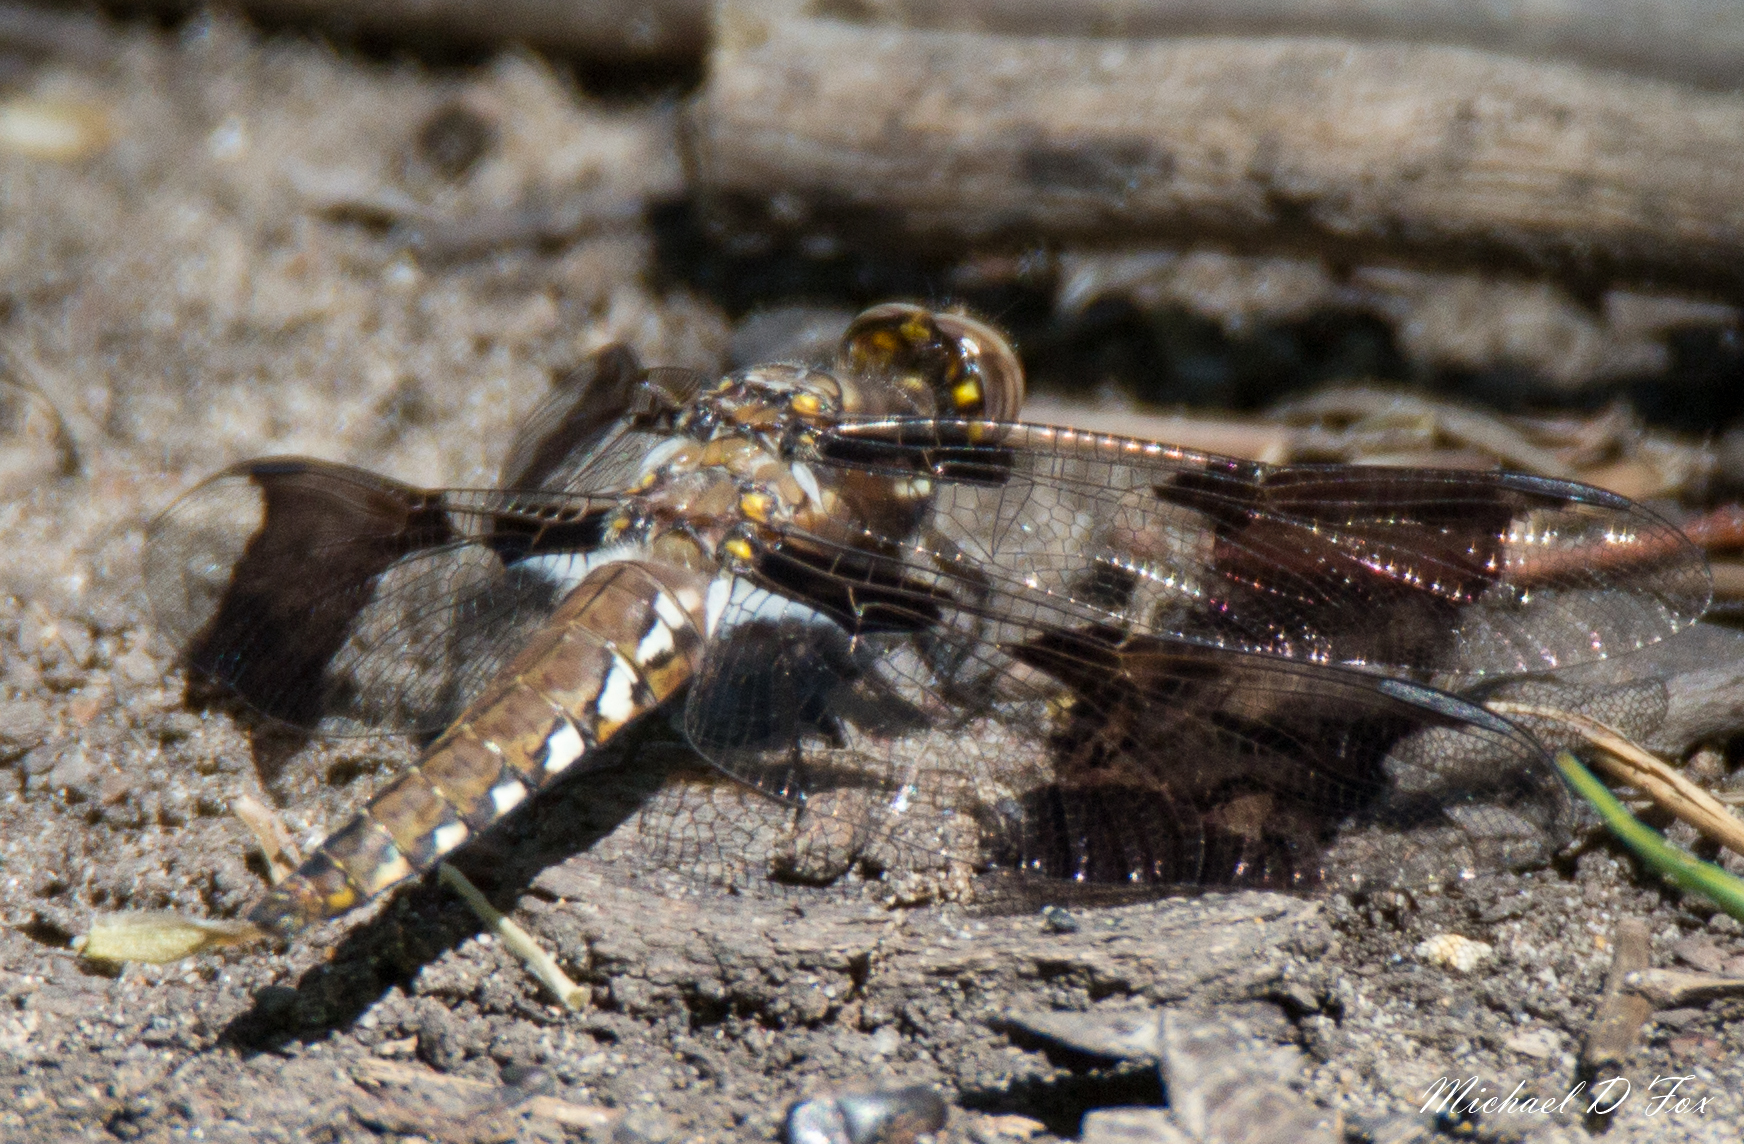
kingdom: Animalia
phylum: Arthropoda
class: Insecta
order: Odonata
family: Libellulidae
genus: Plathemis
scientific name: Plathemis lydia
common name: Common whitetail
